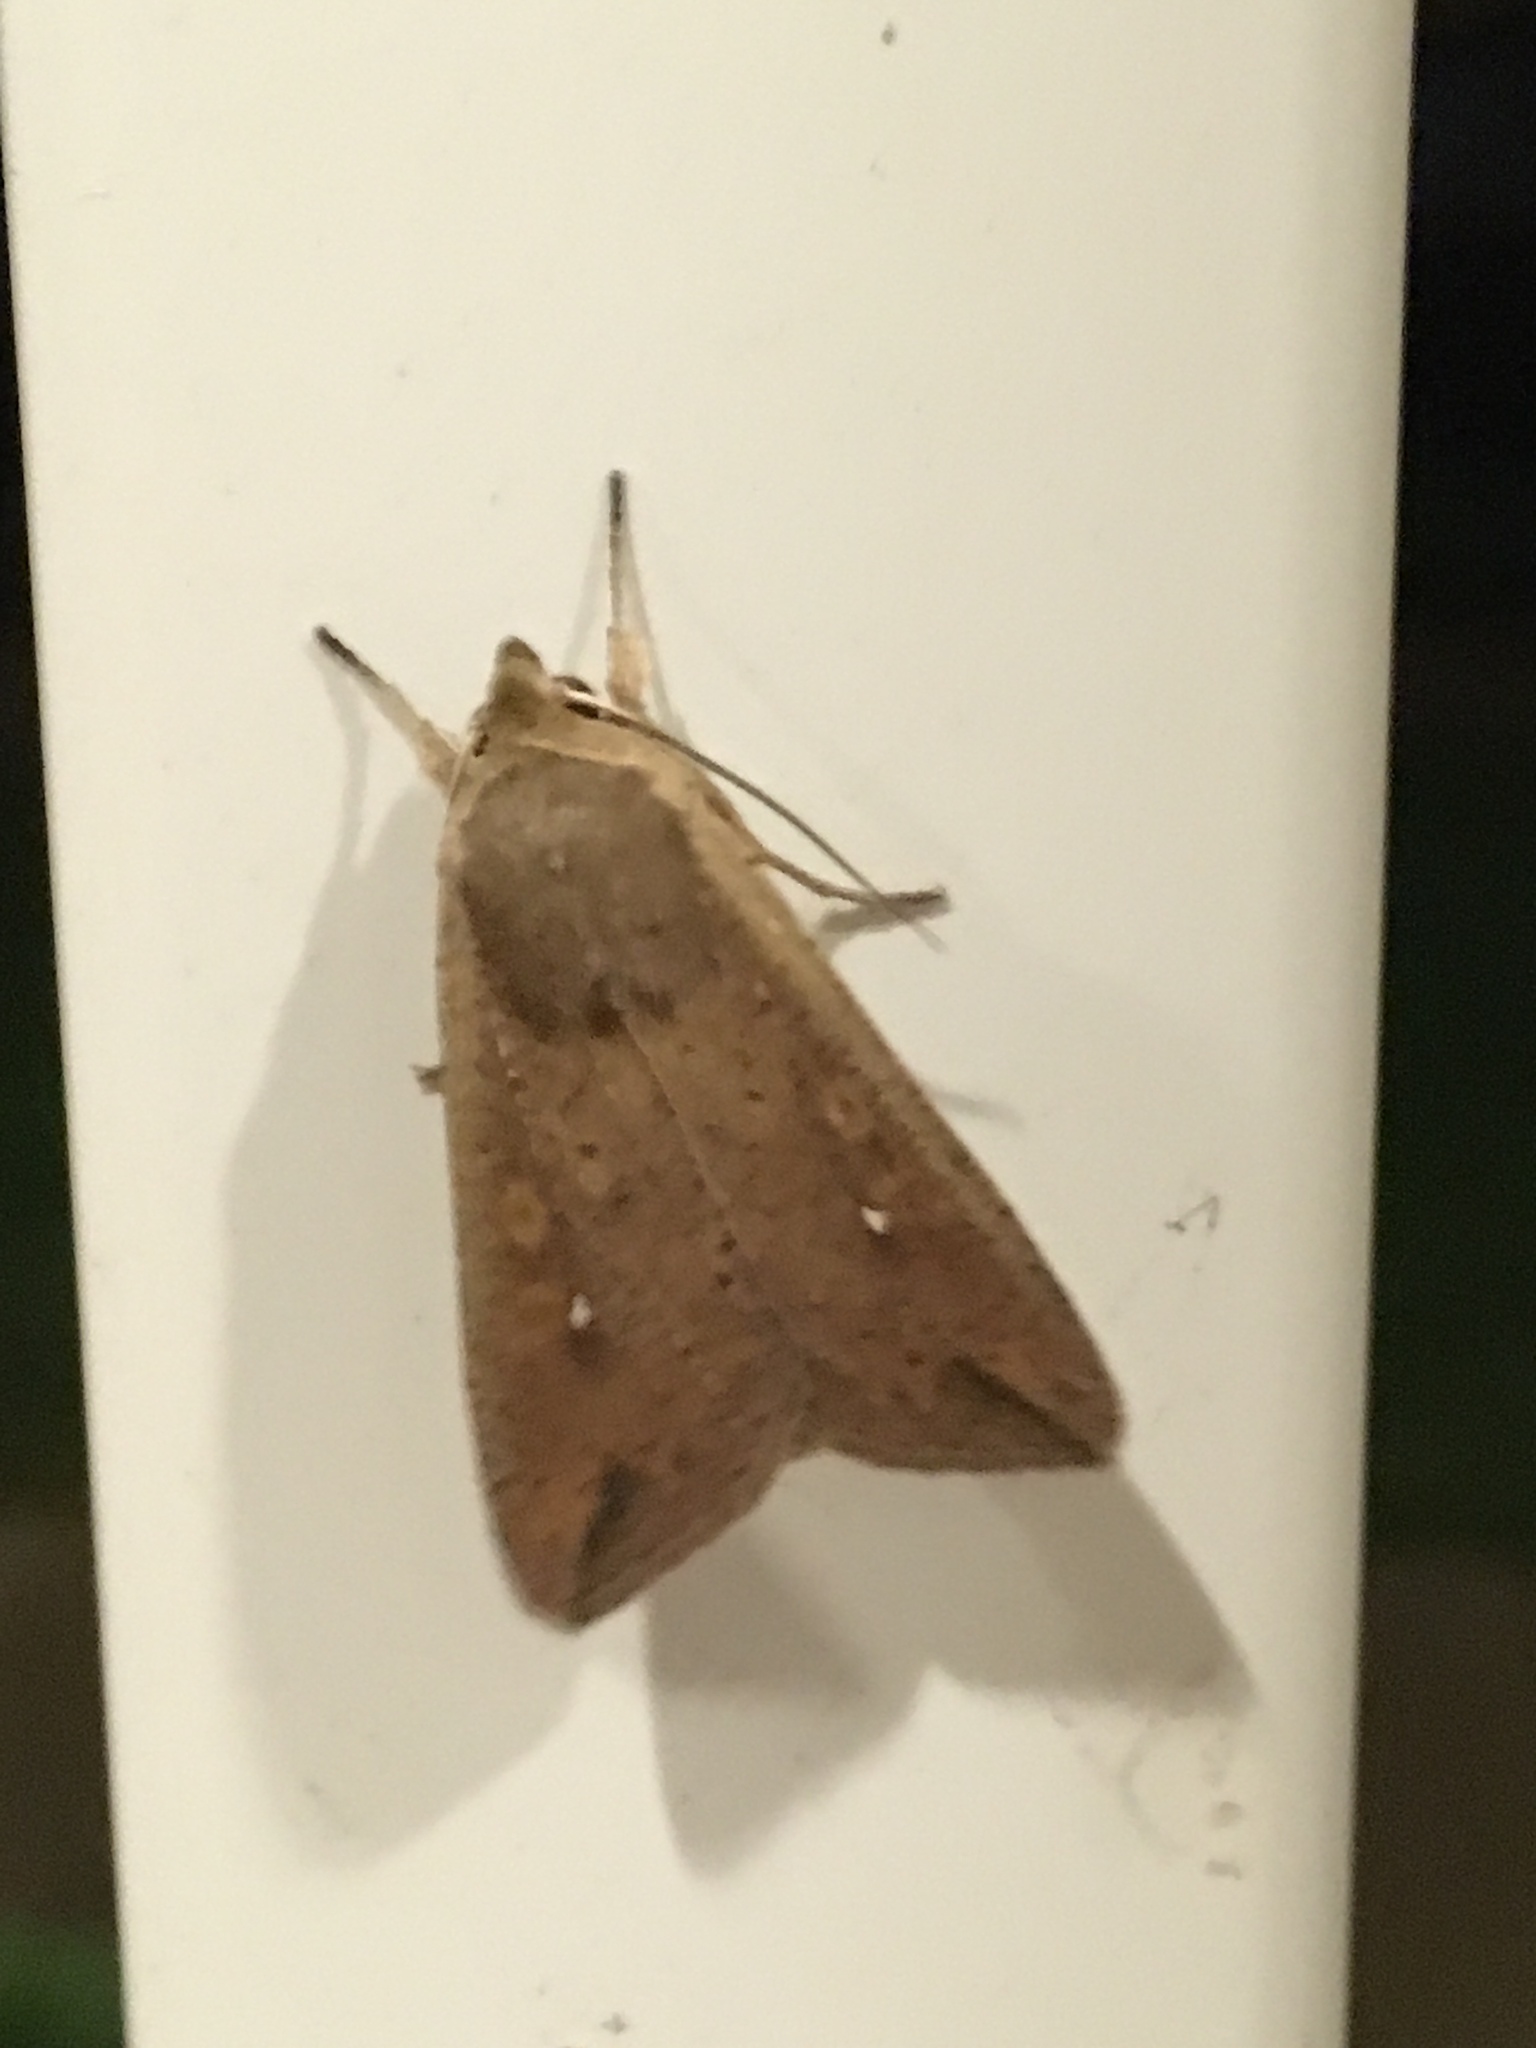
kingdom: Animalia
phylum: Arthropoda
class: Insecta
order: Lepidoptera
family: Noctuidae
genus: Mythimna
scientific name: Mythimna unipuncta
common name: White-speck
